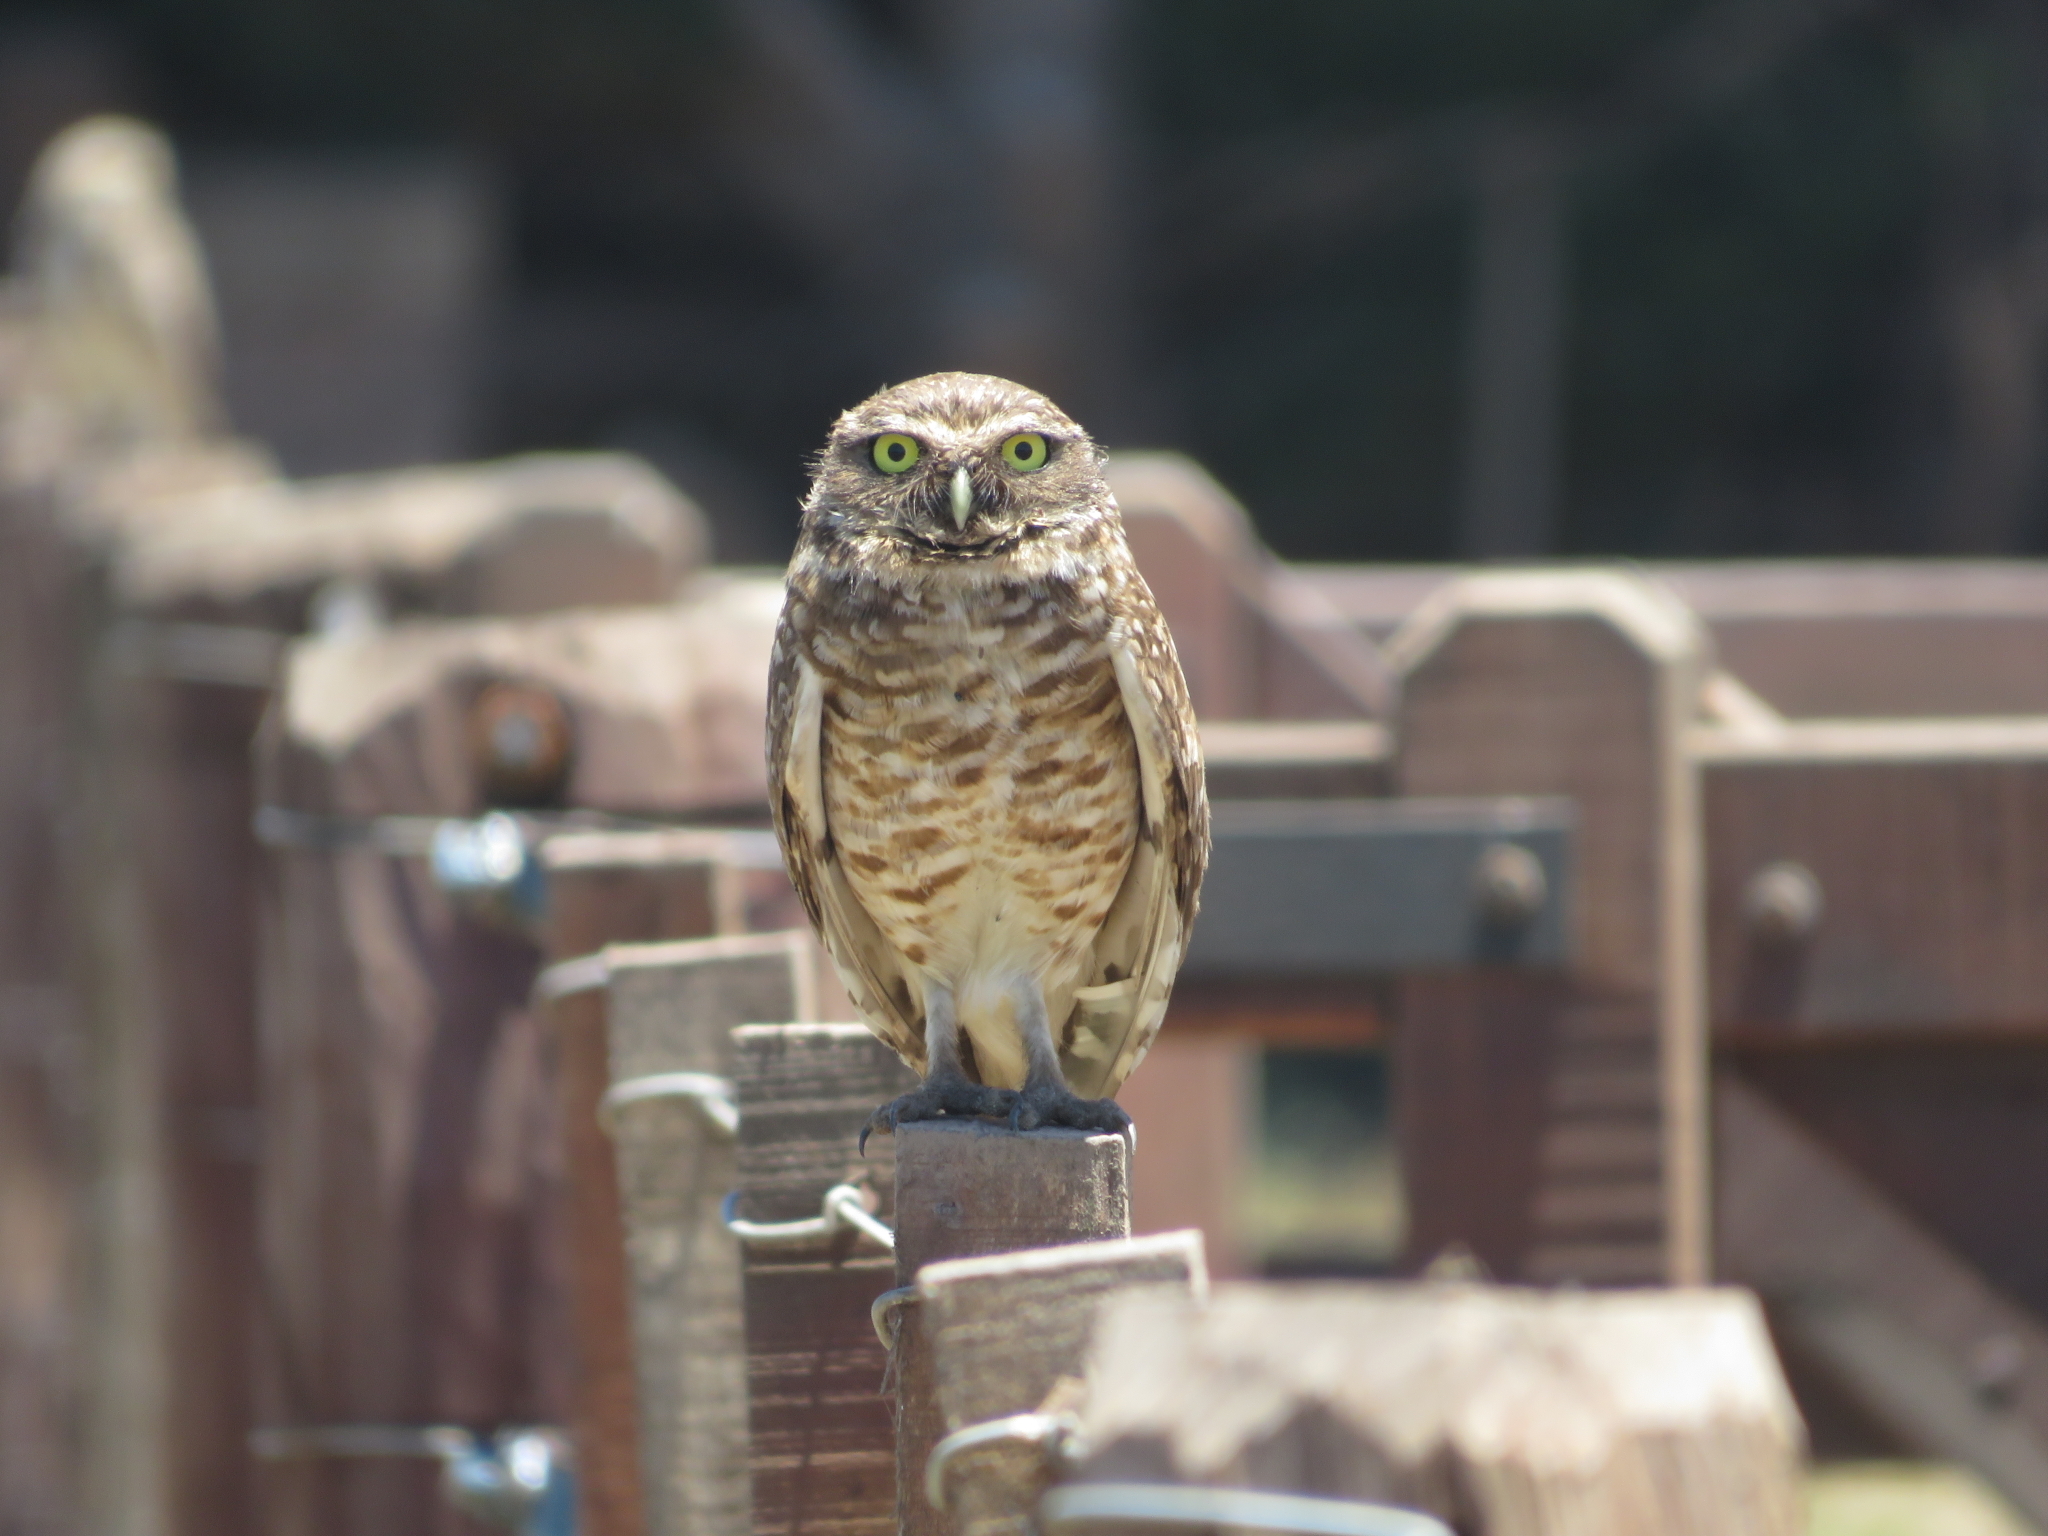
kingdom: Animalia
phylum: Chordata
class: Aves
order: Strigiformes
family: Strigidae
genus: Athene
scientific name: Athene cunicularia
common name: Burrowing owl
